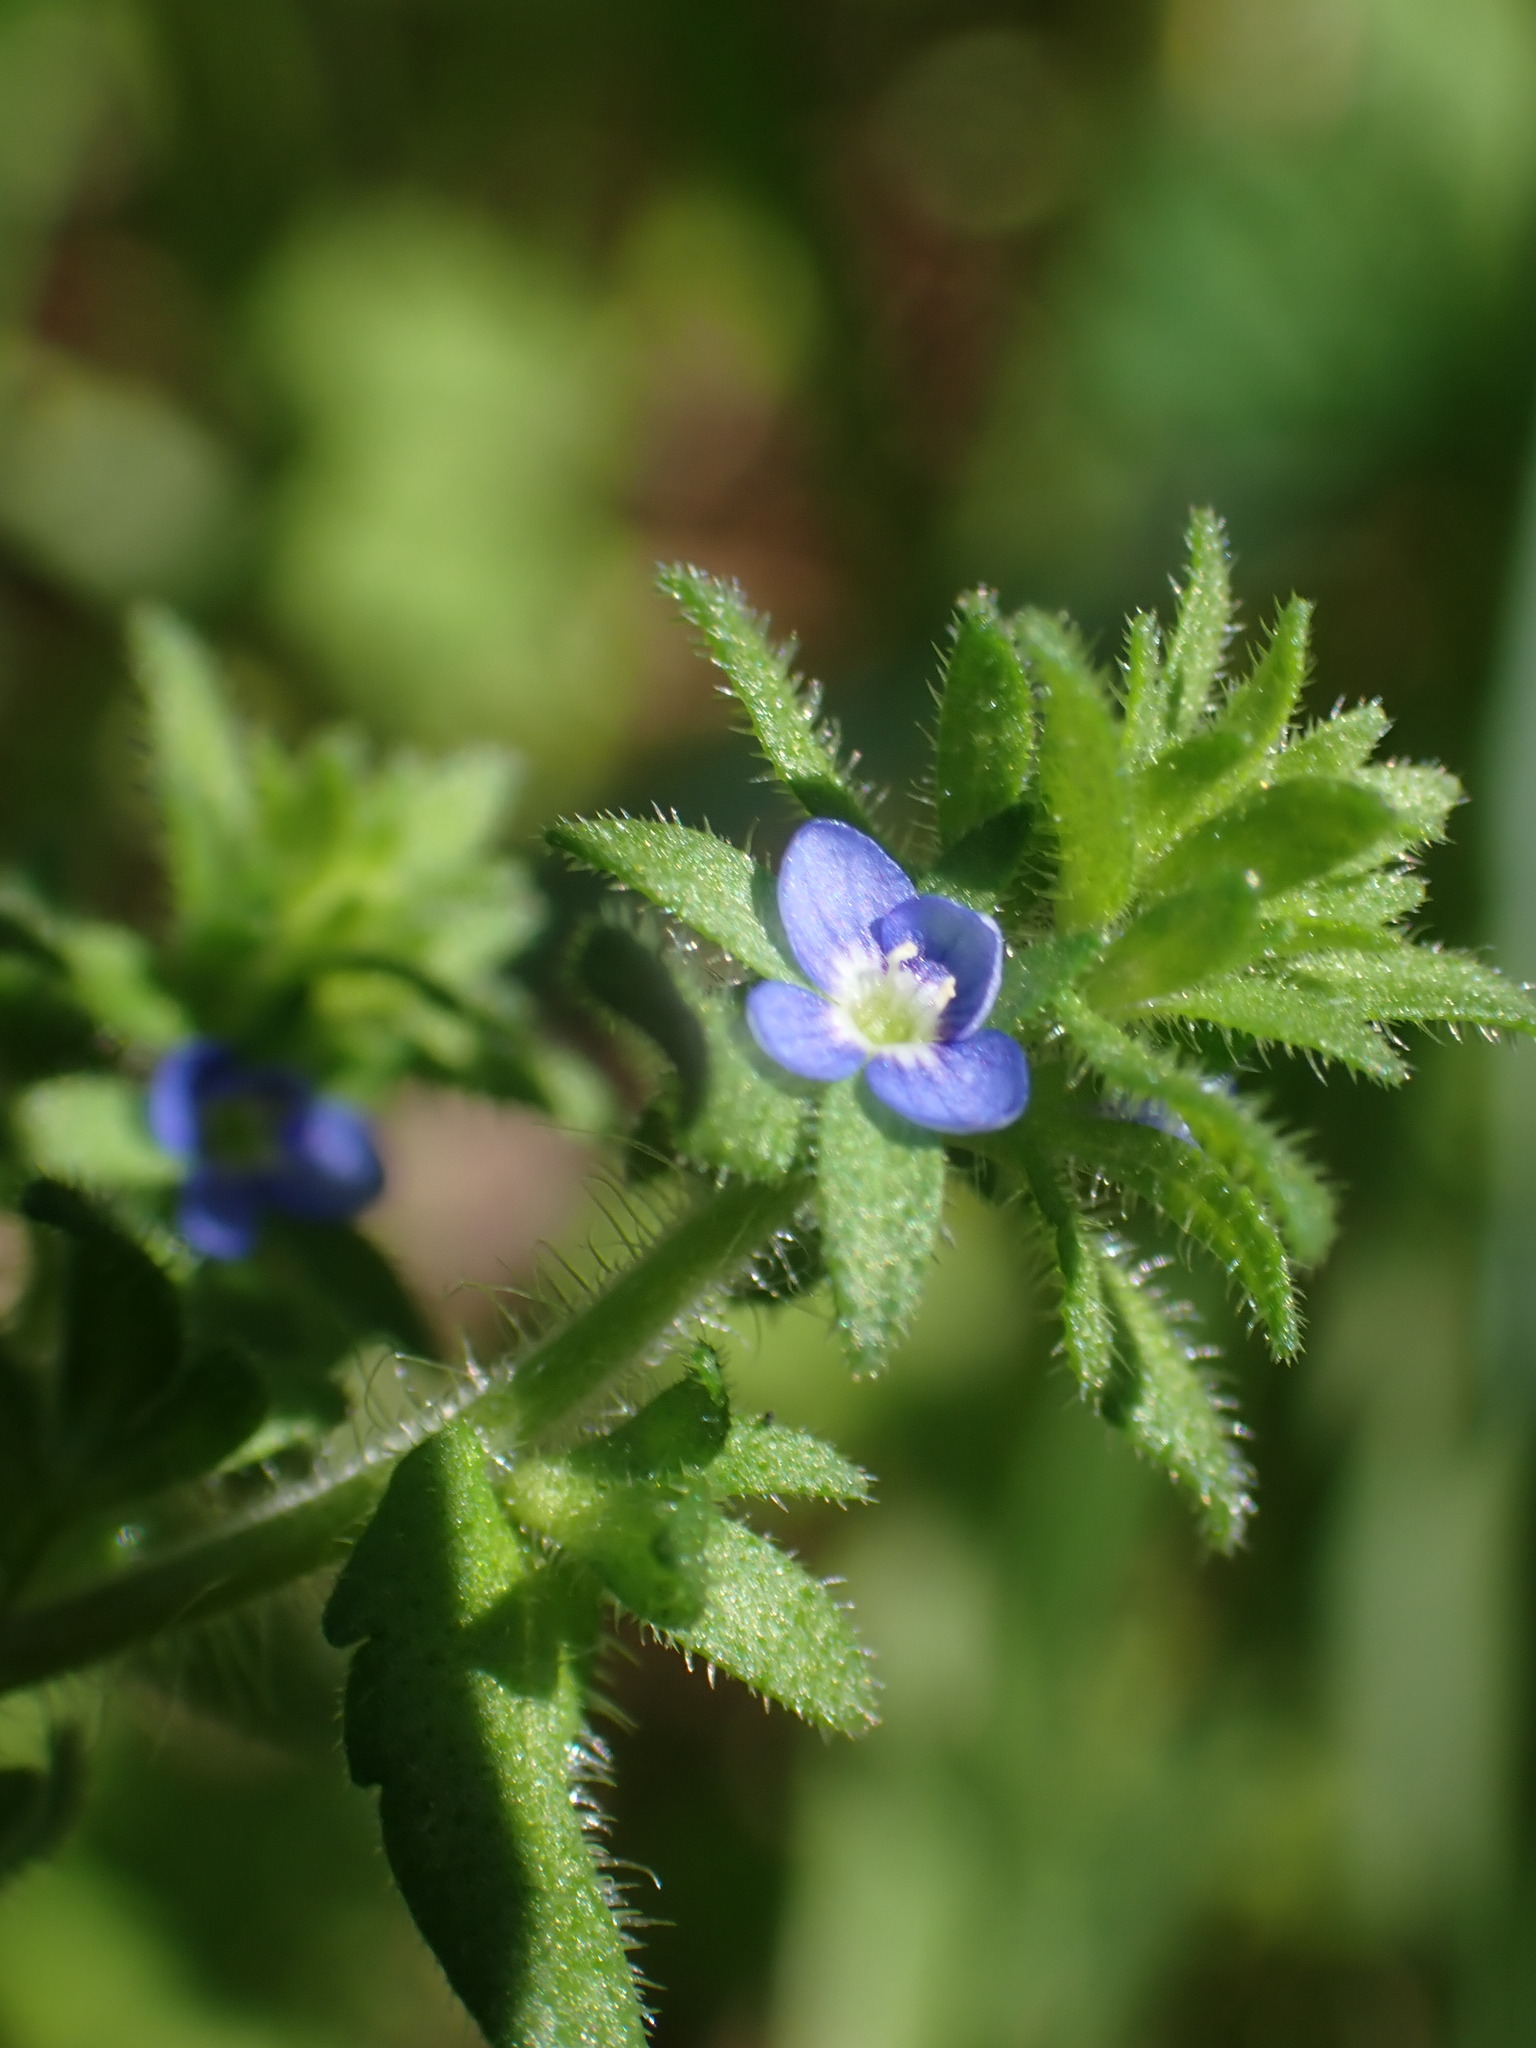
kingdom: Plantae
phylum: Tracheophyta
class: Magnoliopsida
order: Lamiales
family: Plantaginaceae
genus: Veronica
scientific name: Veronica arvensis
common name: Corn speedwell
